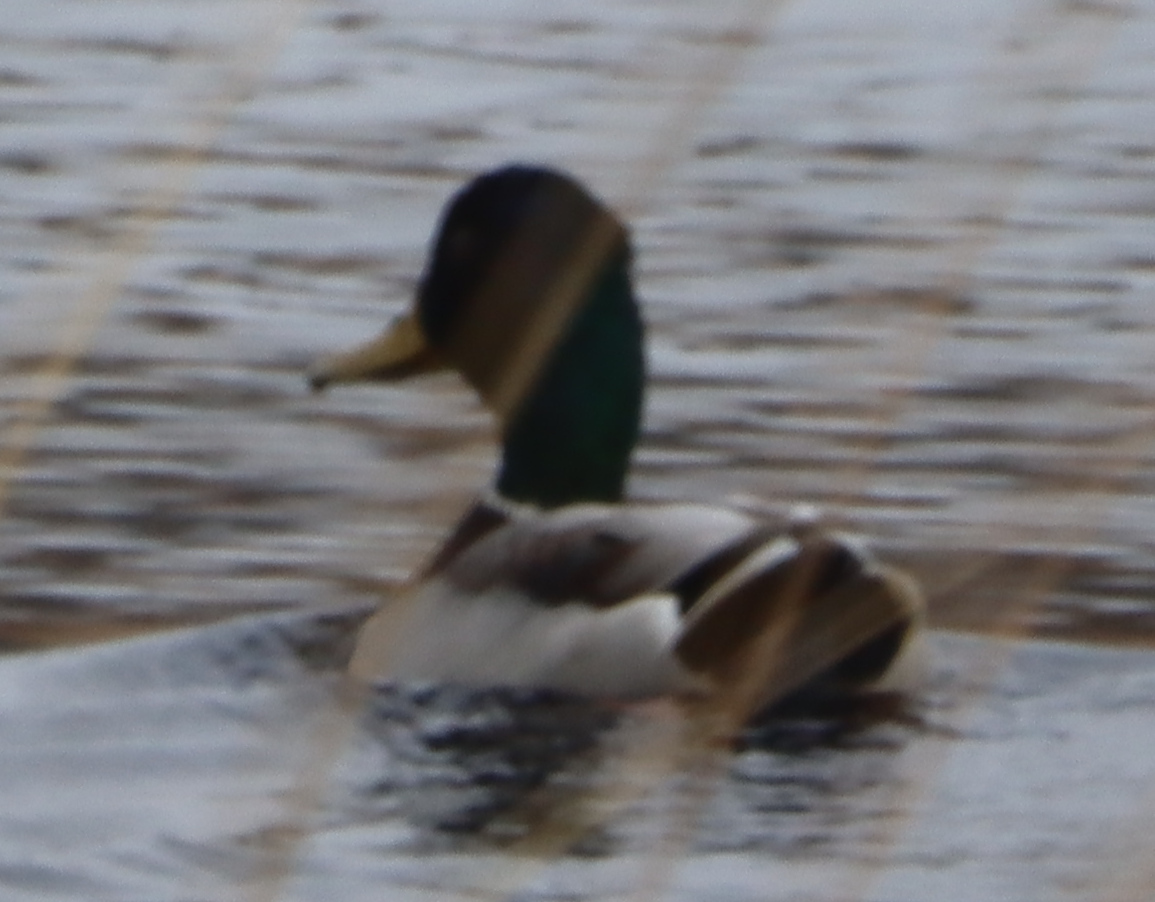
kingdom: Animalia
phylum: Chordata
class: Aves
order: Anseriformes
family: Anatidae
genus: Anas
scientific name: Anas platyrhynchos
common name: Mallard
